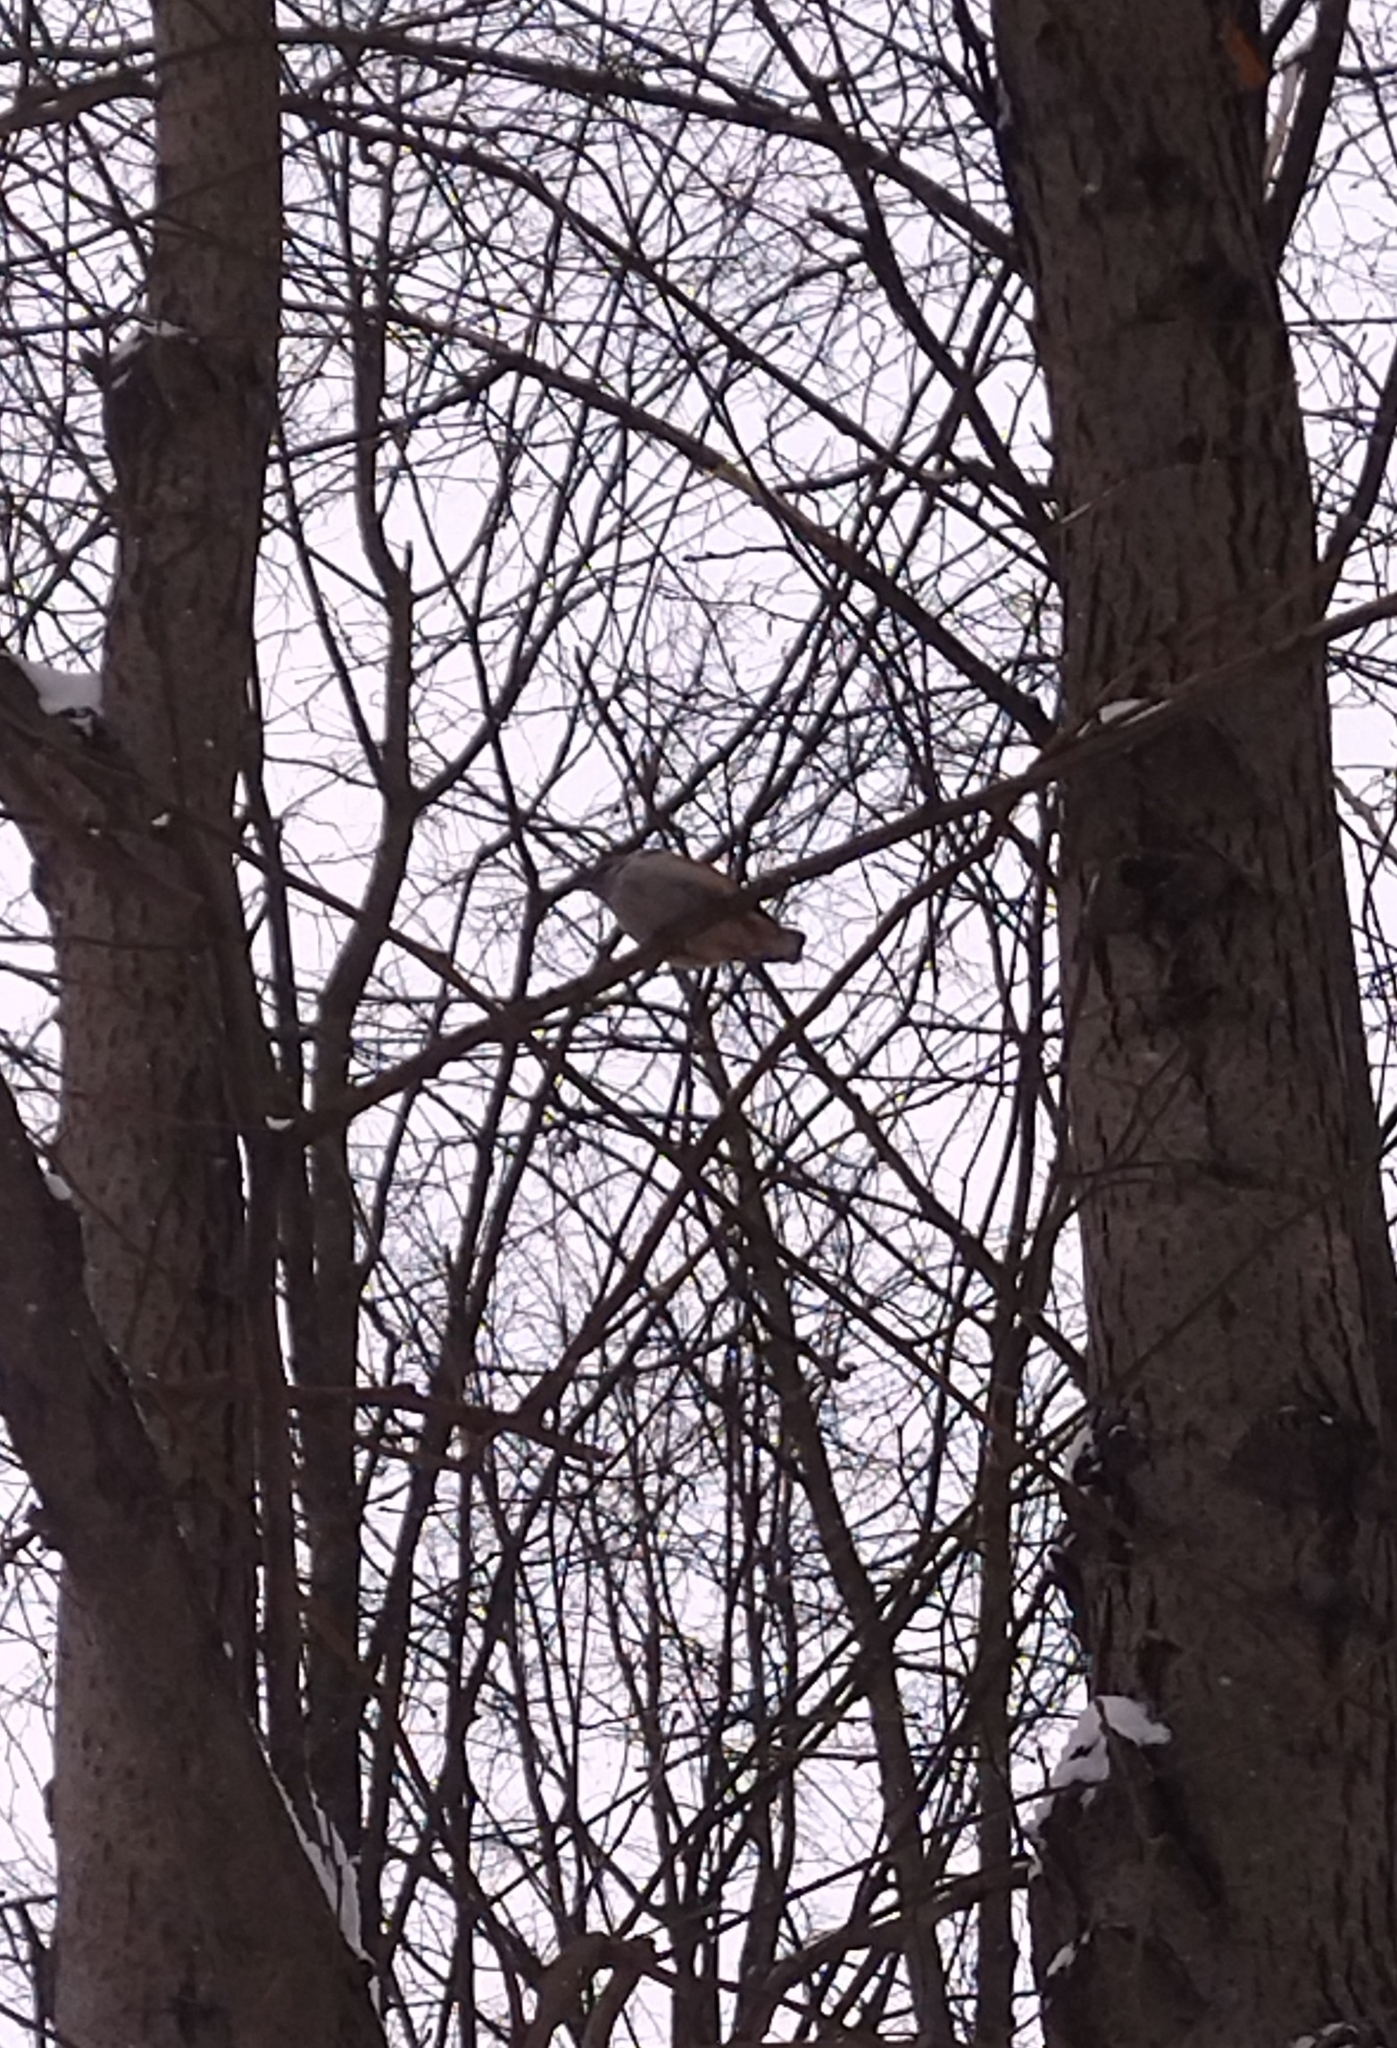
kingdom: Animalia
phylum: Chordata
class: Aves
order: Passeriformes
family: Sittidae
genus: Sitta
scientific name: Sitta europaea
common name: Eurasian nuthatch
